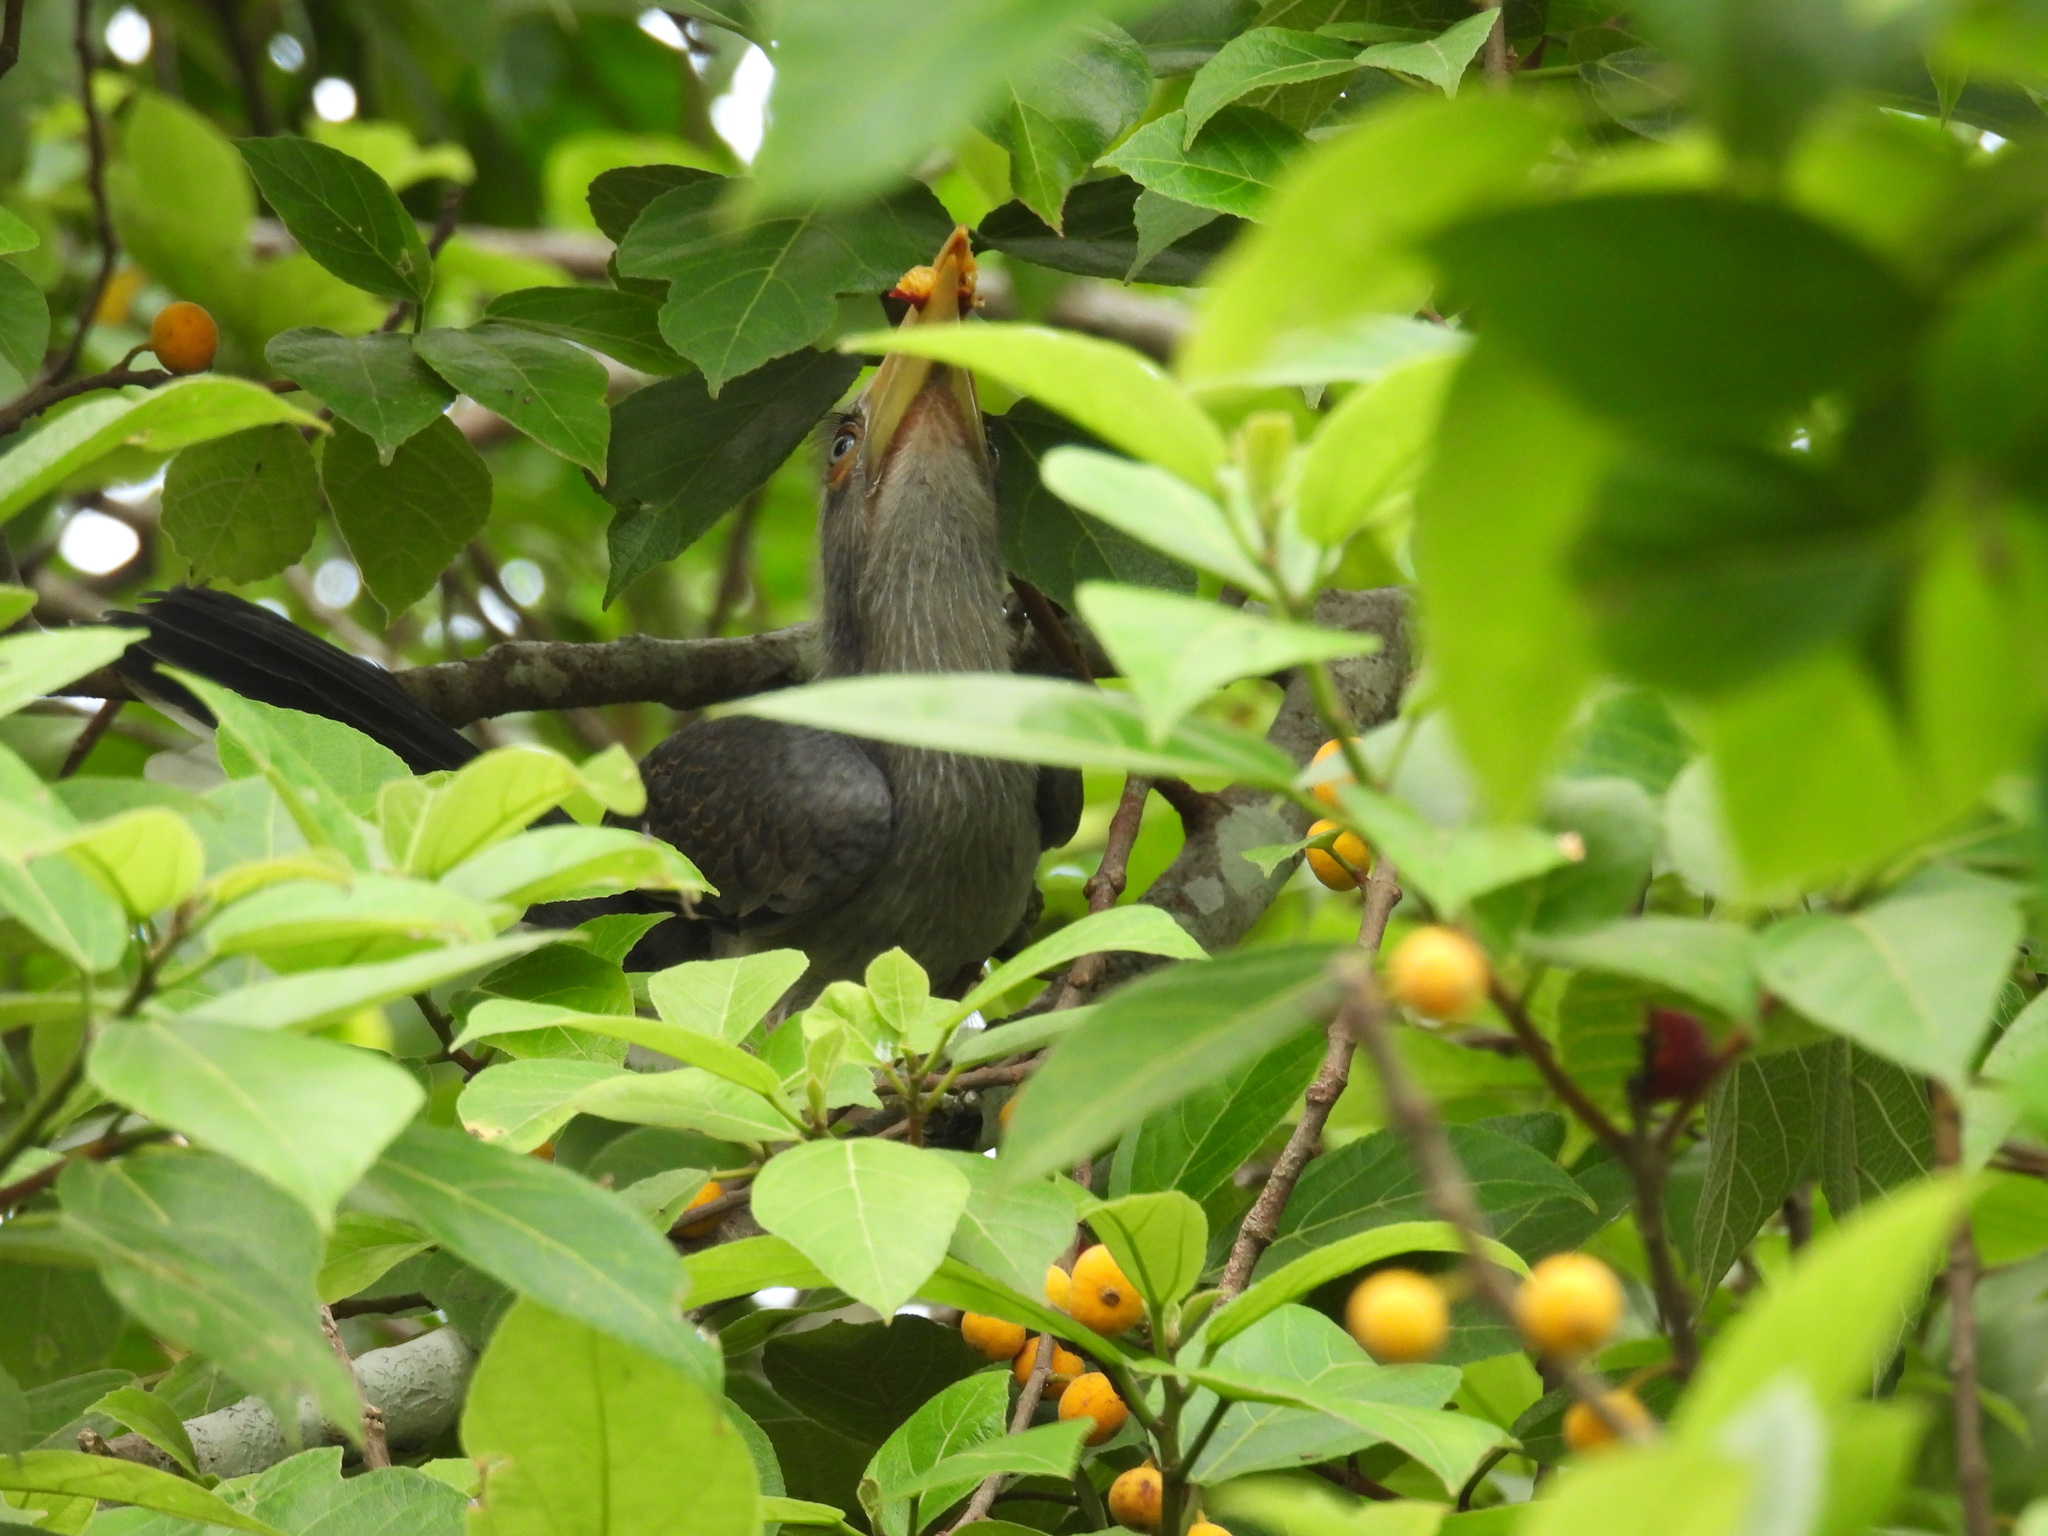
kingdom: Animalia
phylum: Chordata
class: Aves
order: Bucerotiformes
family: Bucerotidae
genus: Ocyceros
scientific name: Ocyceros griseus
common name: Malabar grey hornbill
